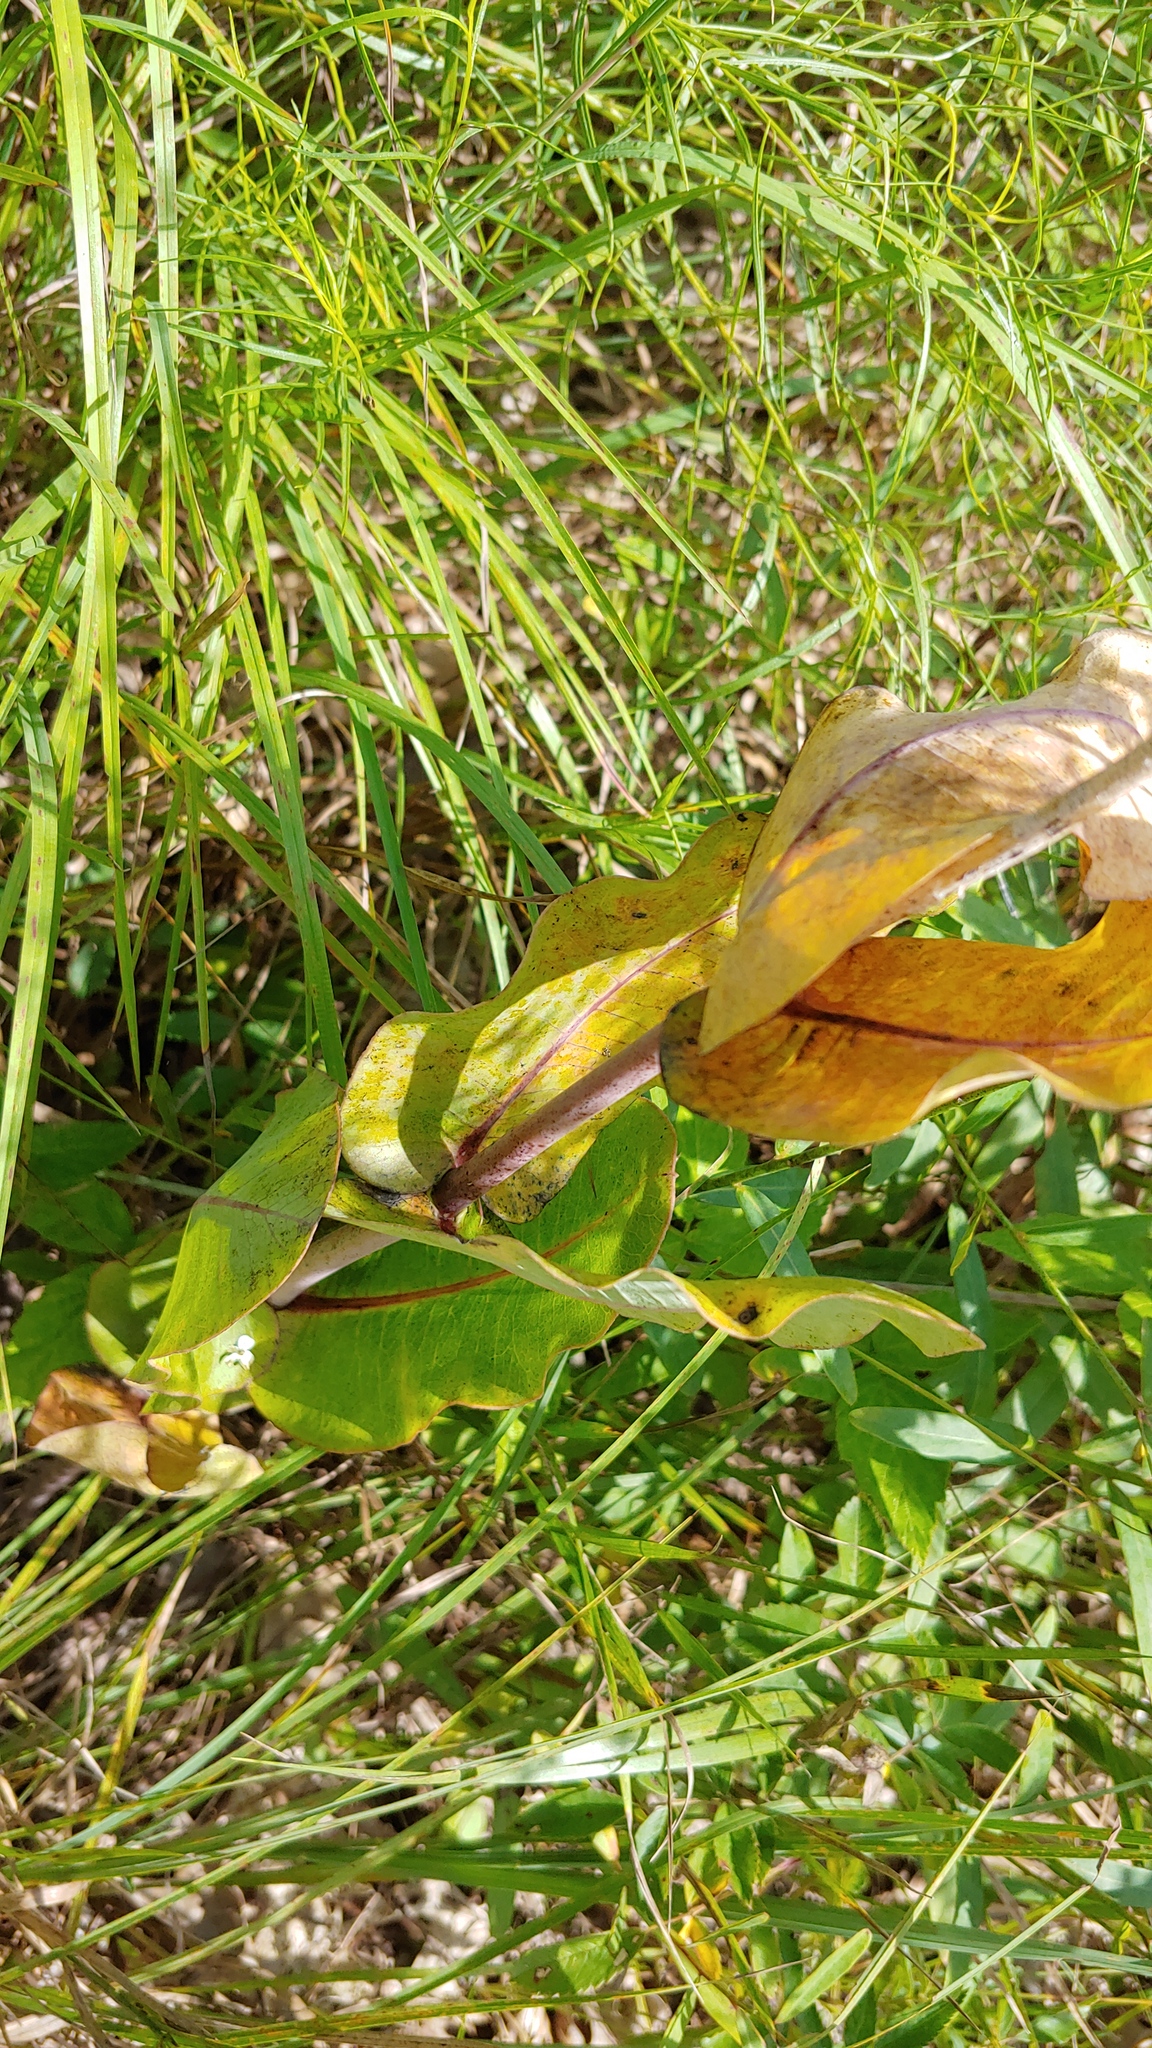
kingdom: Plantae
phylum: Tracheophyta
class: Magnoliopsida
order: Gentianales
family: Apocynaceae
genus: Asclepias
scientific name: Asclepias amplexicaulis
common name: Blunt-leaf milkweed
